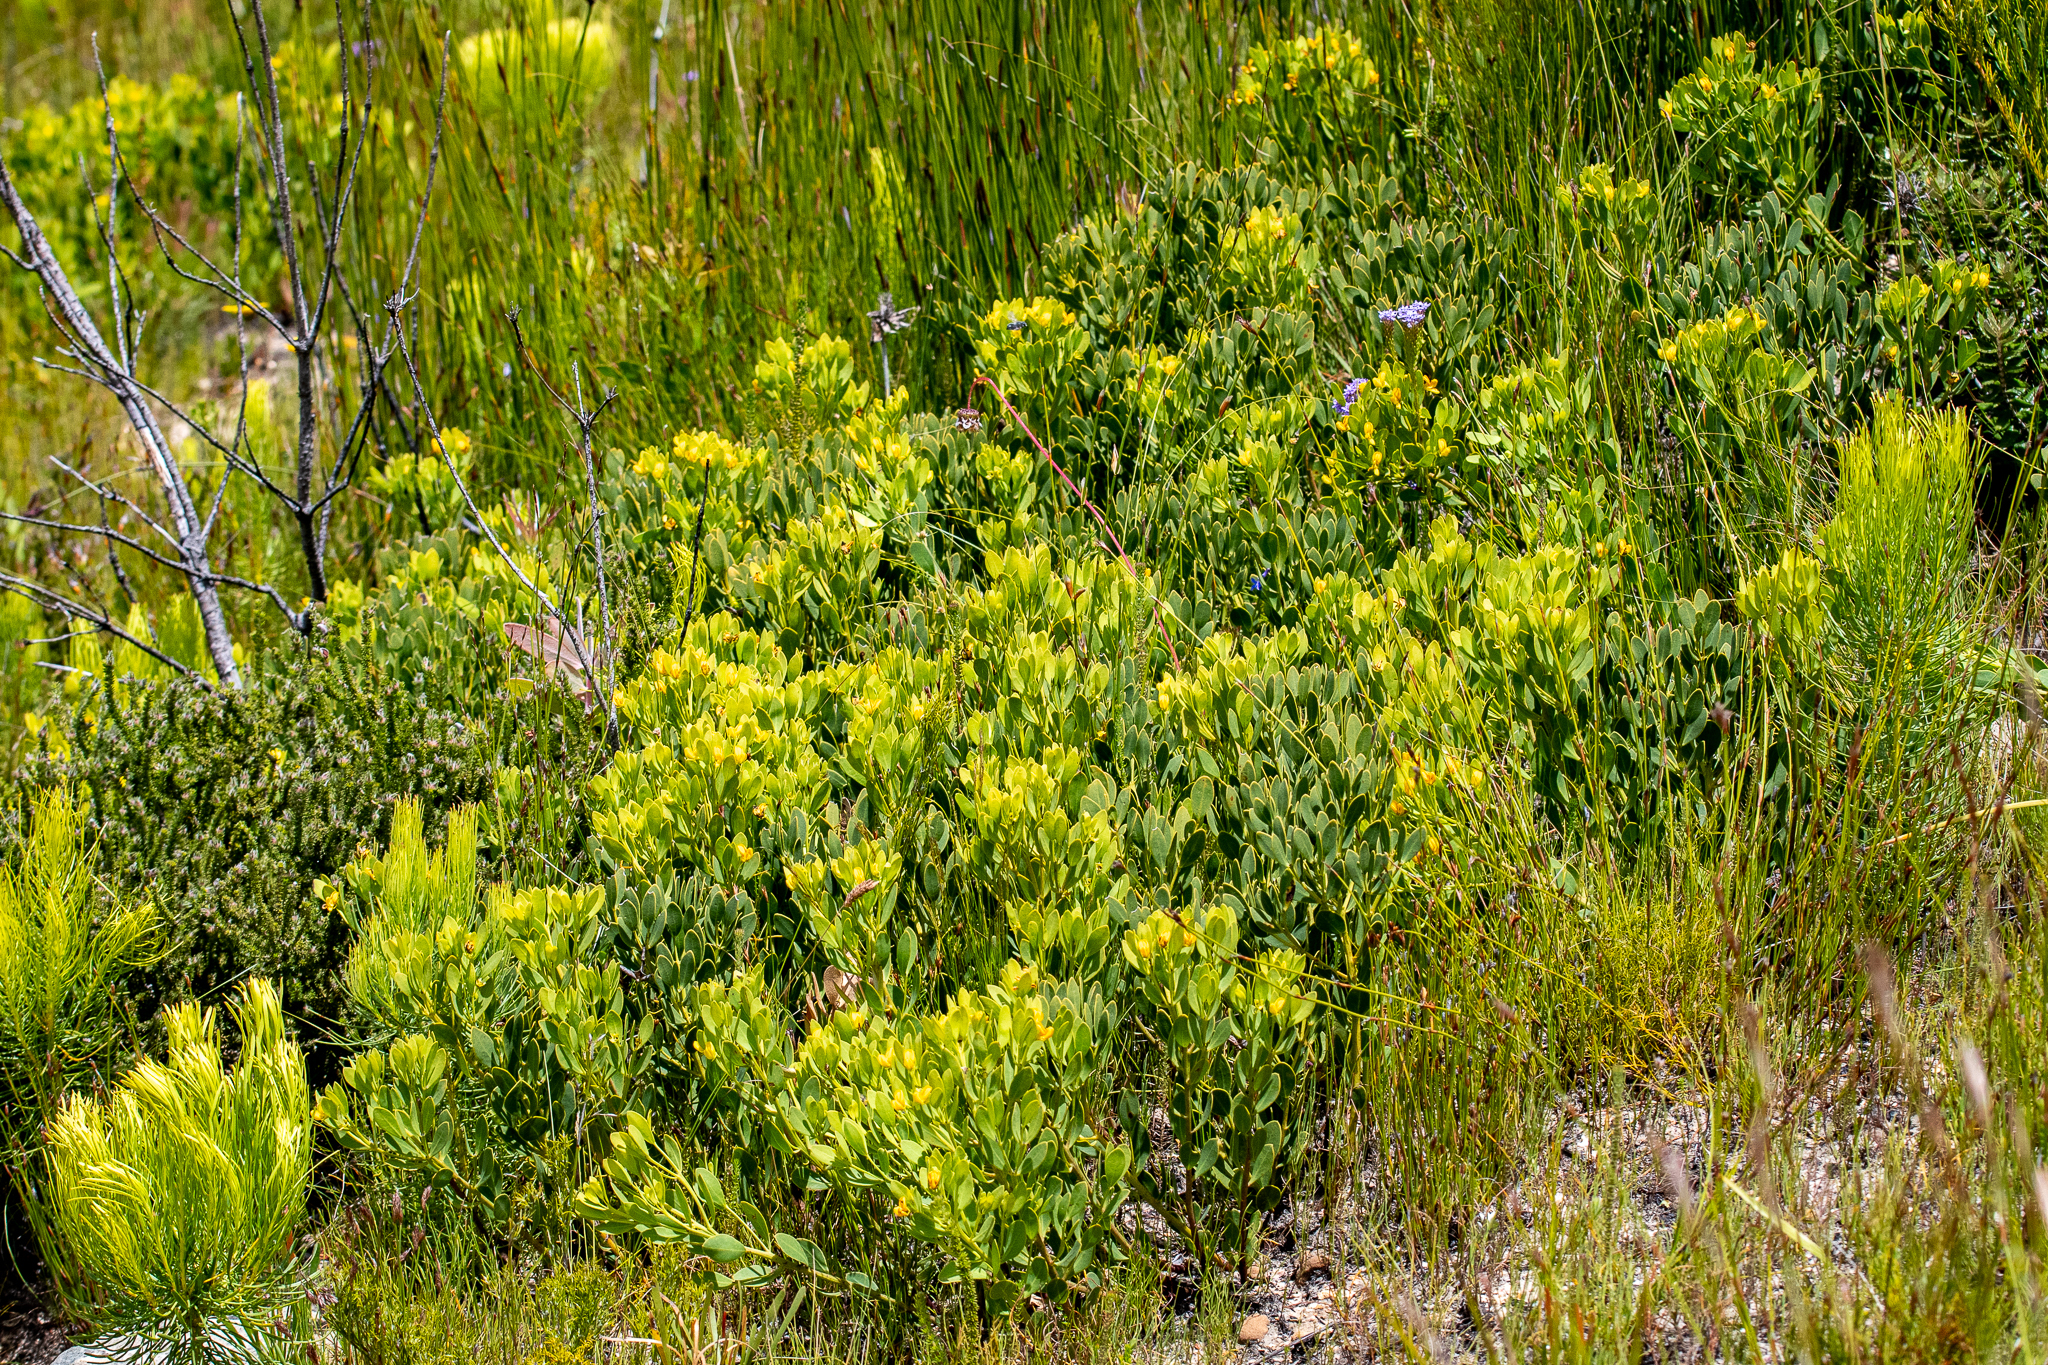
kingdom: Plantae
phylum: Tracheophyta
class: Magnoliopsida
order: Fabales
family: Fabaceae
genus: Rafnia
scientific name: Rafnia capensis
